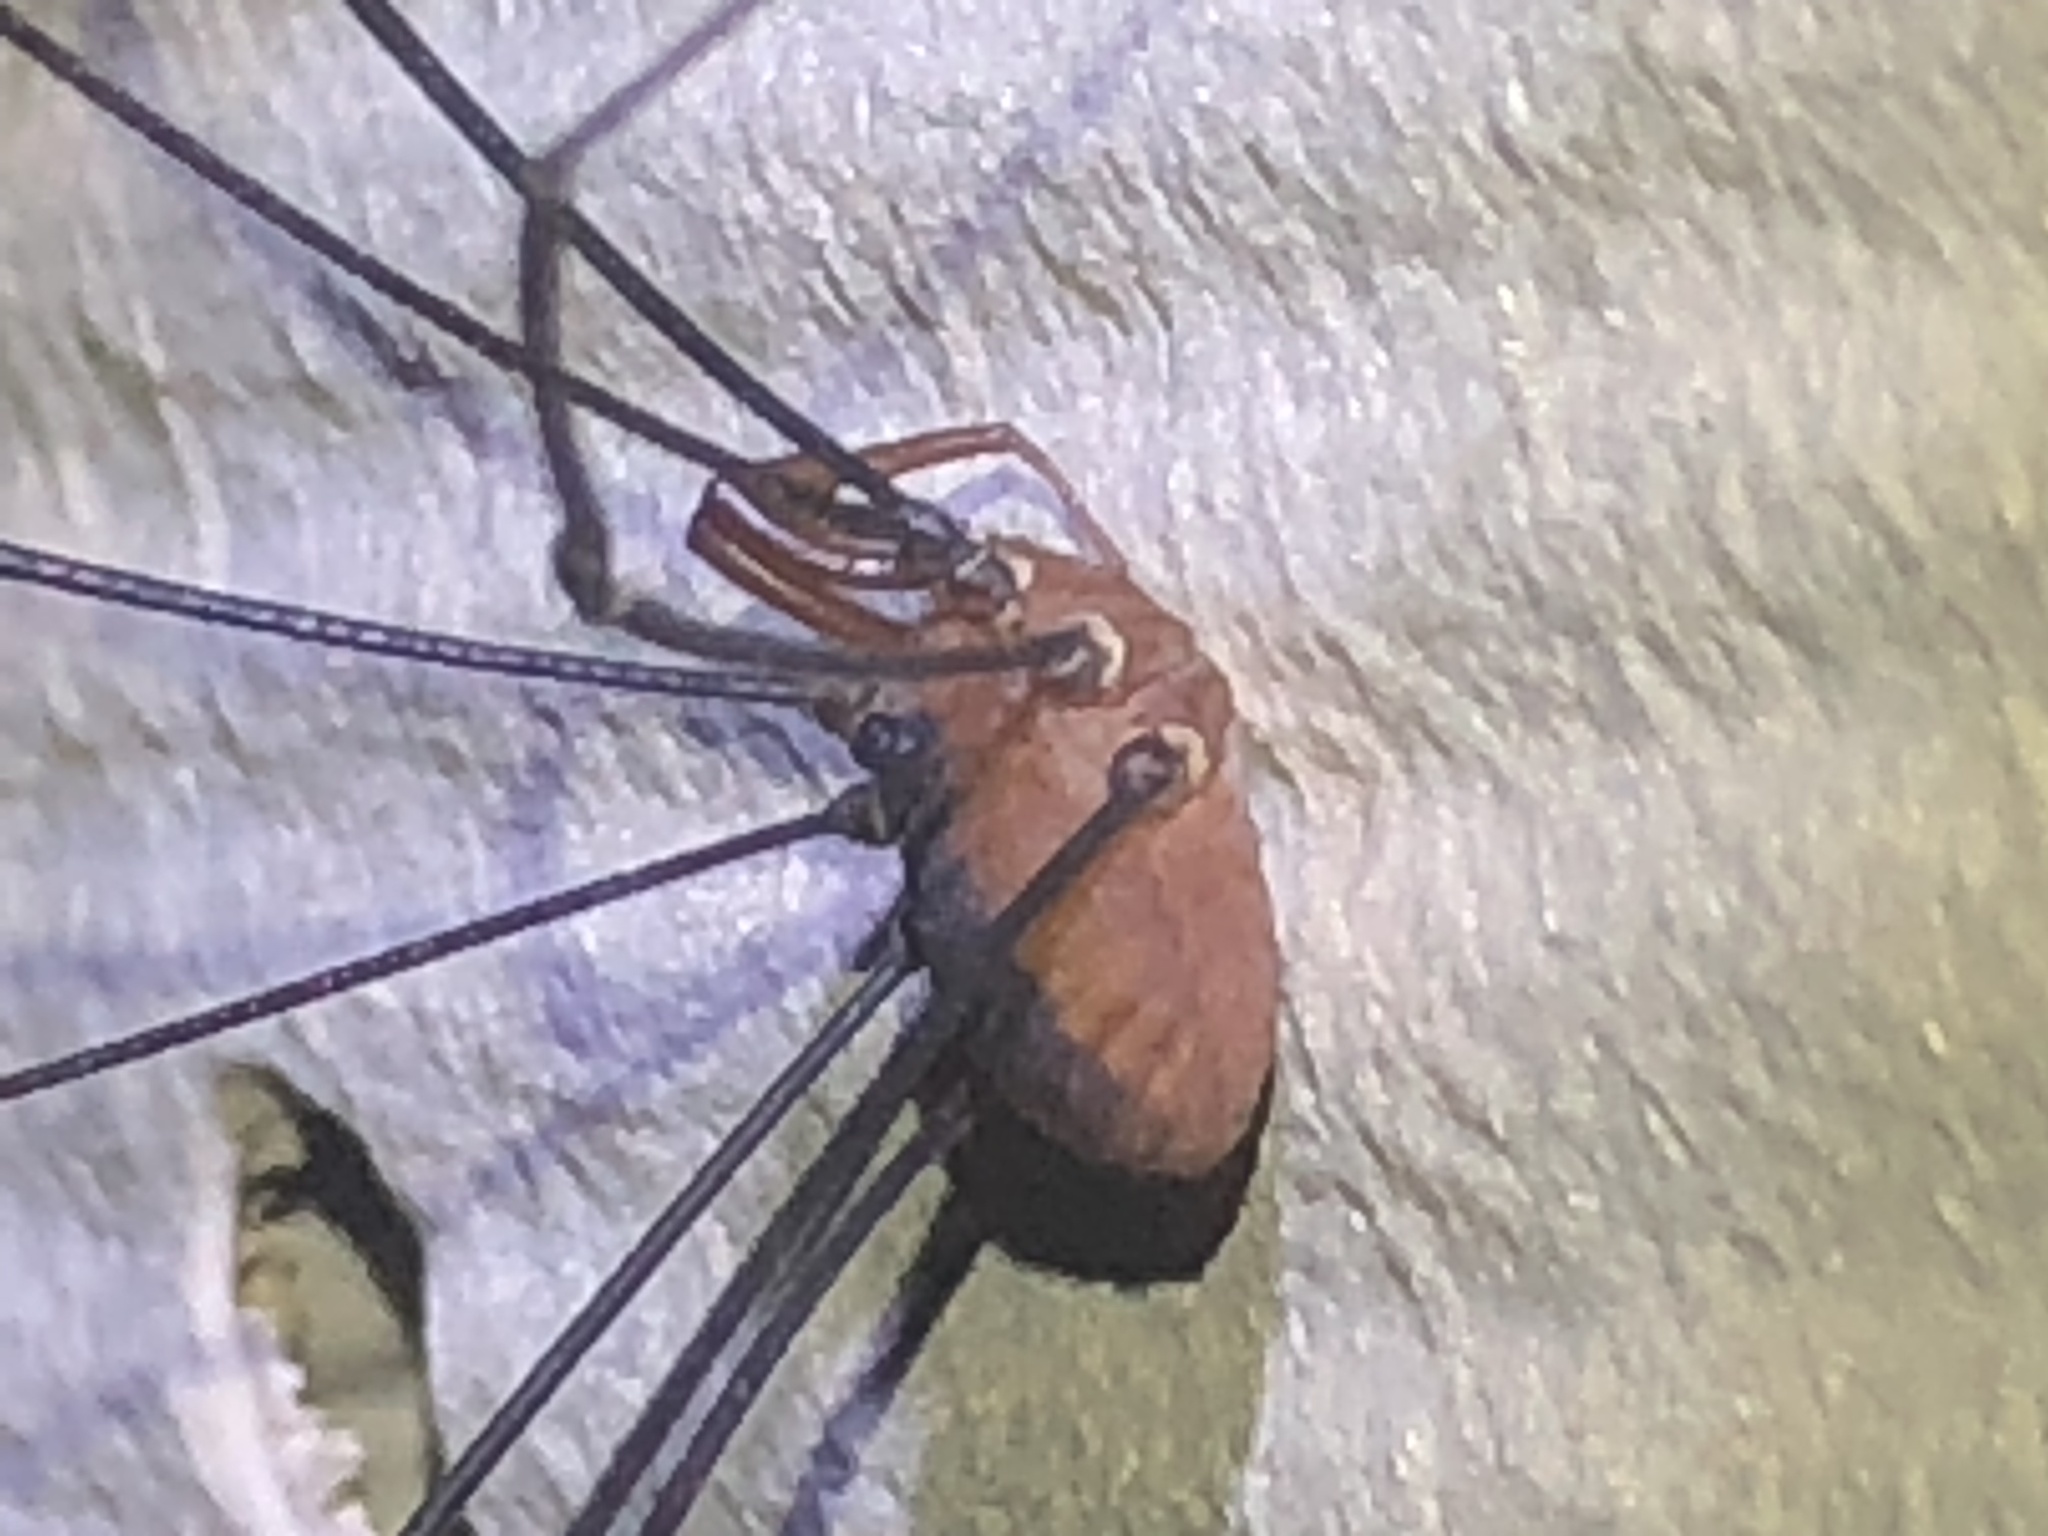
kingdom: Animalia
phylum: Arthropoda
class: Arachnida
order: Opiliones
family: Sclerosomatidae
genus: Leiobunum
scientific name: Leiobunum vittatum
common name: Eastern harvestman
